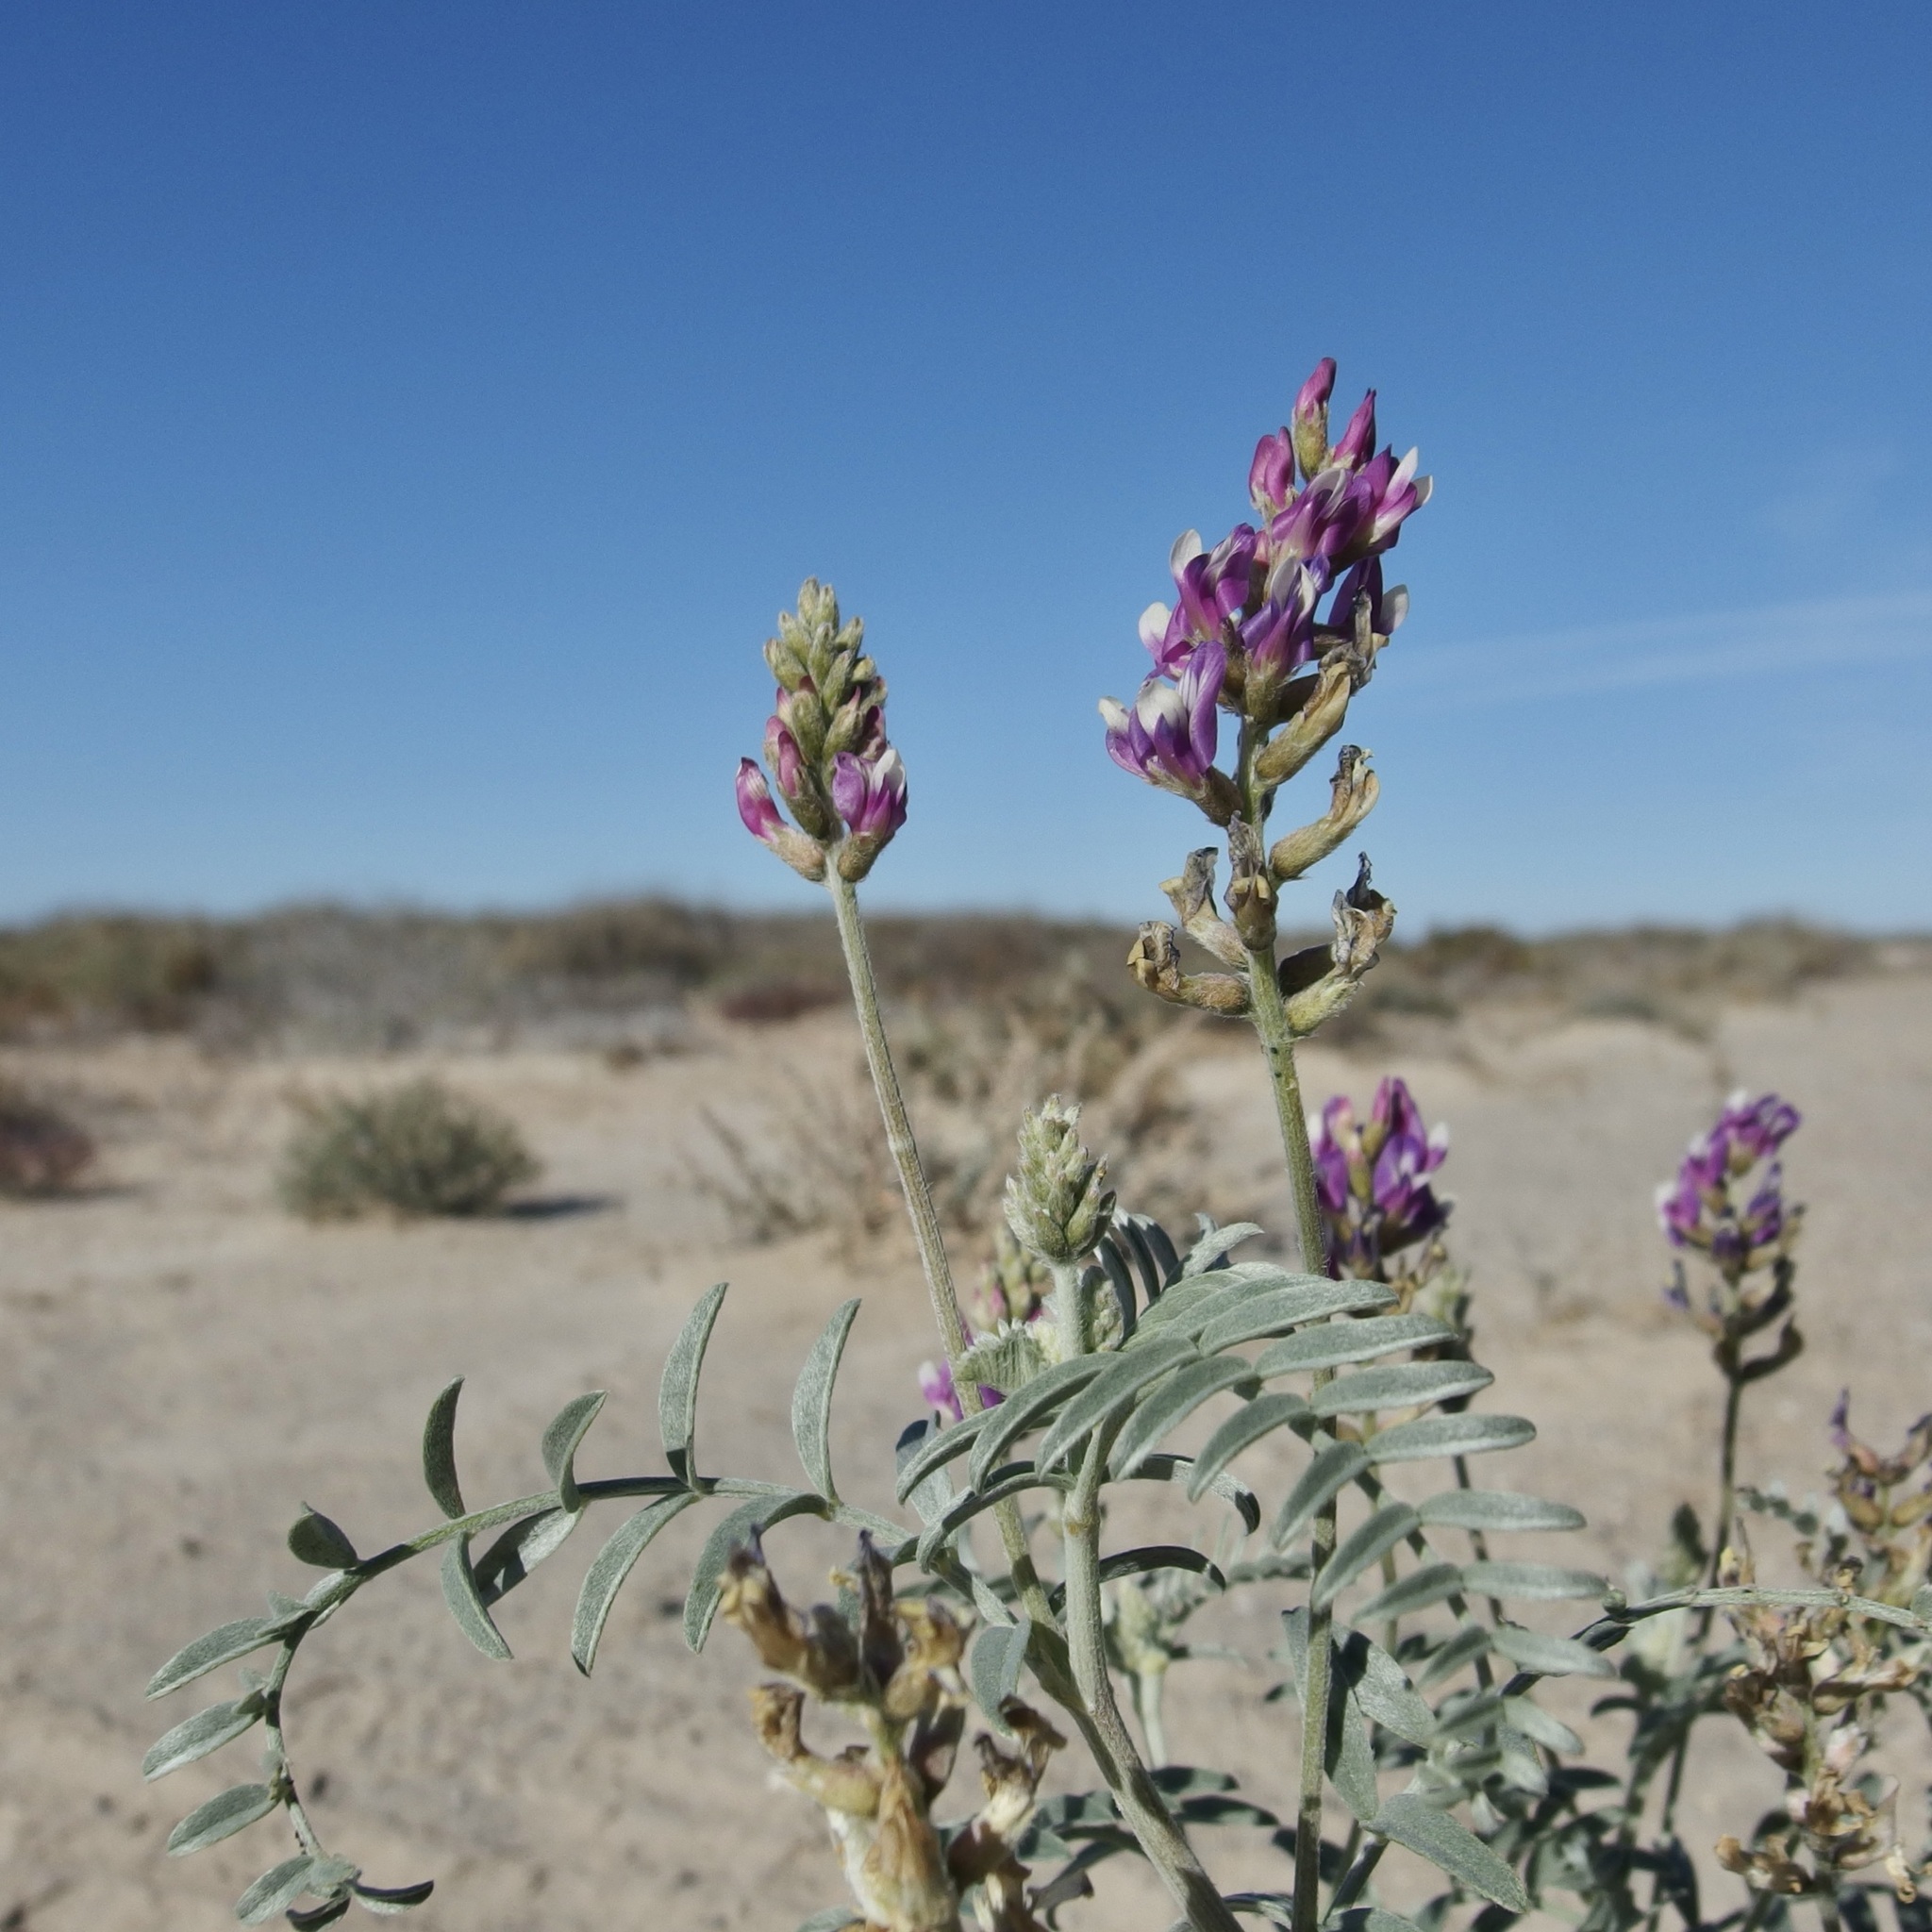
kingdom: Plantae
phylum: Tracheophyta
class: Magnoliopsida
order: Fabales
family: Fabaceae
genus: Astragalus
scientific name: Astragalus magdalenae
